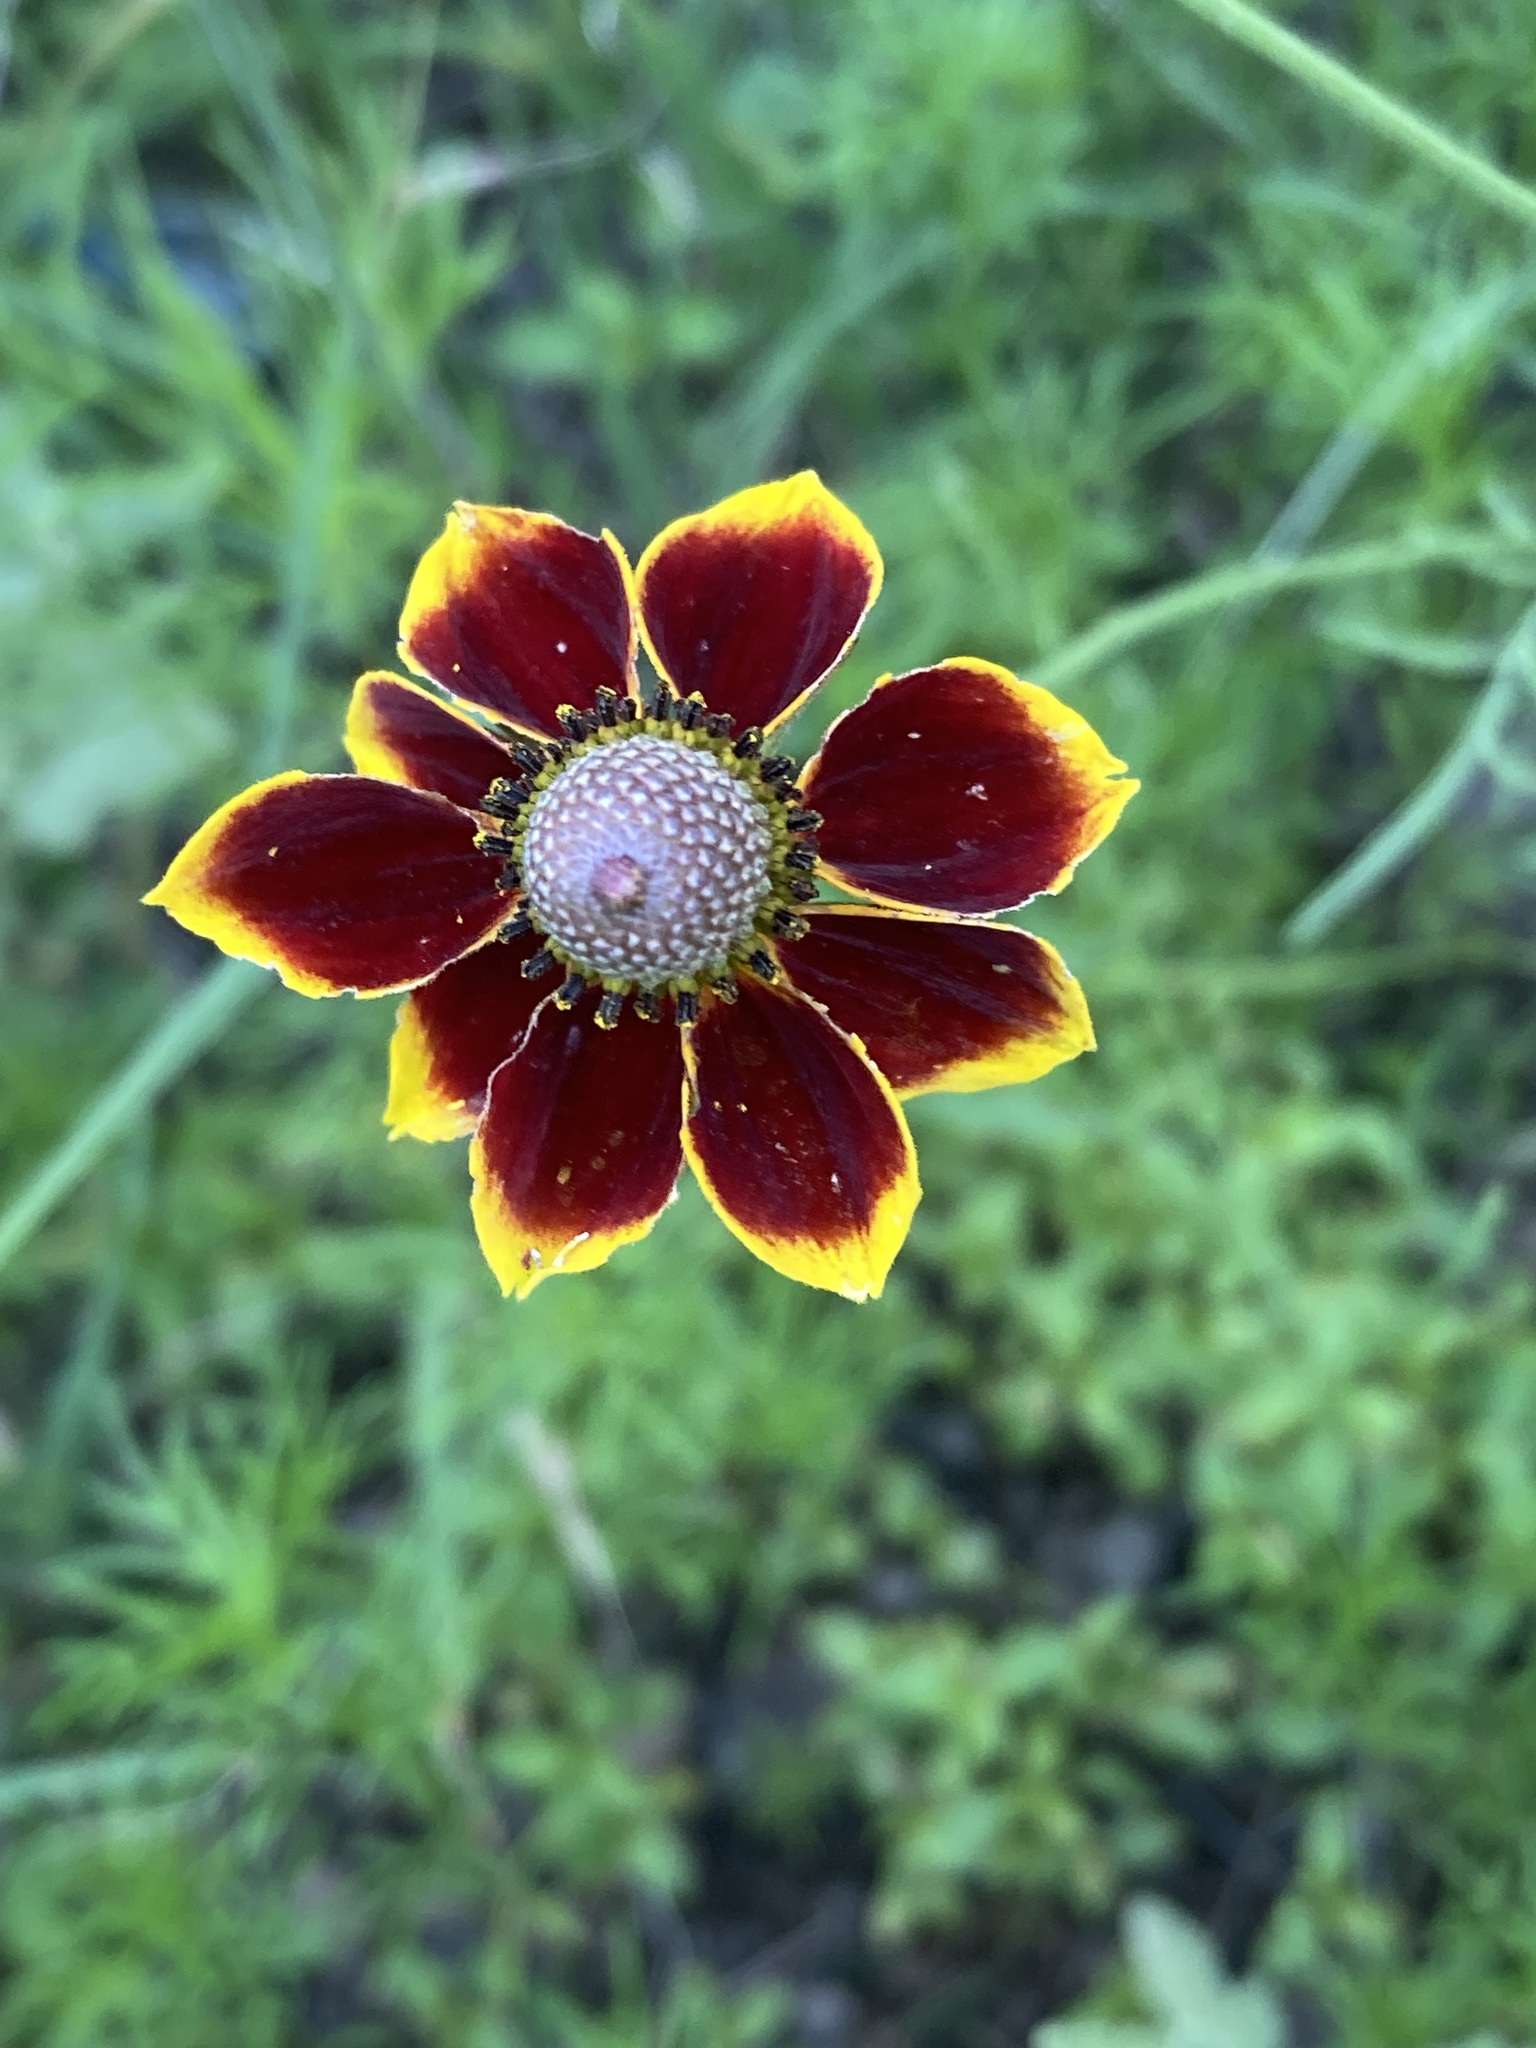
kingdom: Plantae
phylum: Tracheophyta
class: Magnoliopsida
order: Asterales
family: Asteraceae
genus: Ratibida
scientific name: Ratibida columnifera
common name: Prairie coneflower
